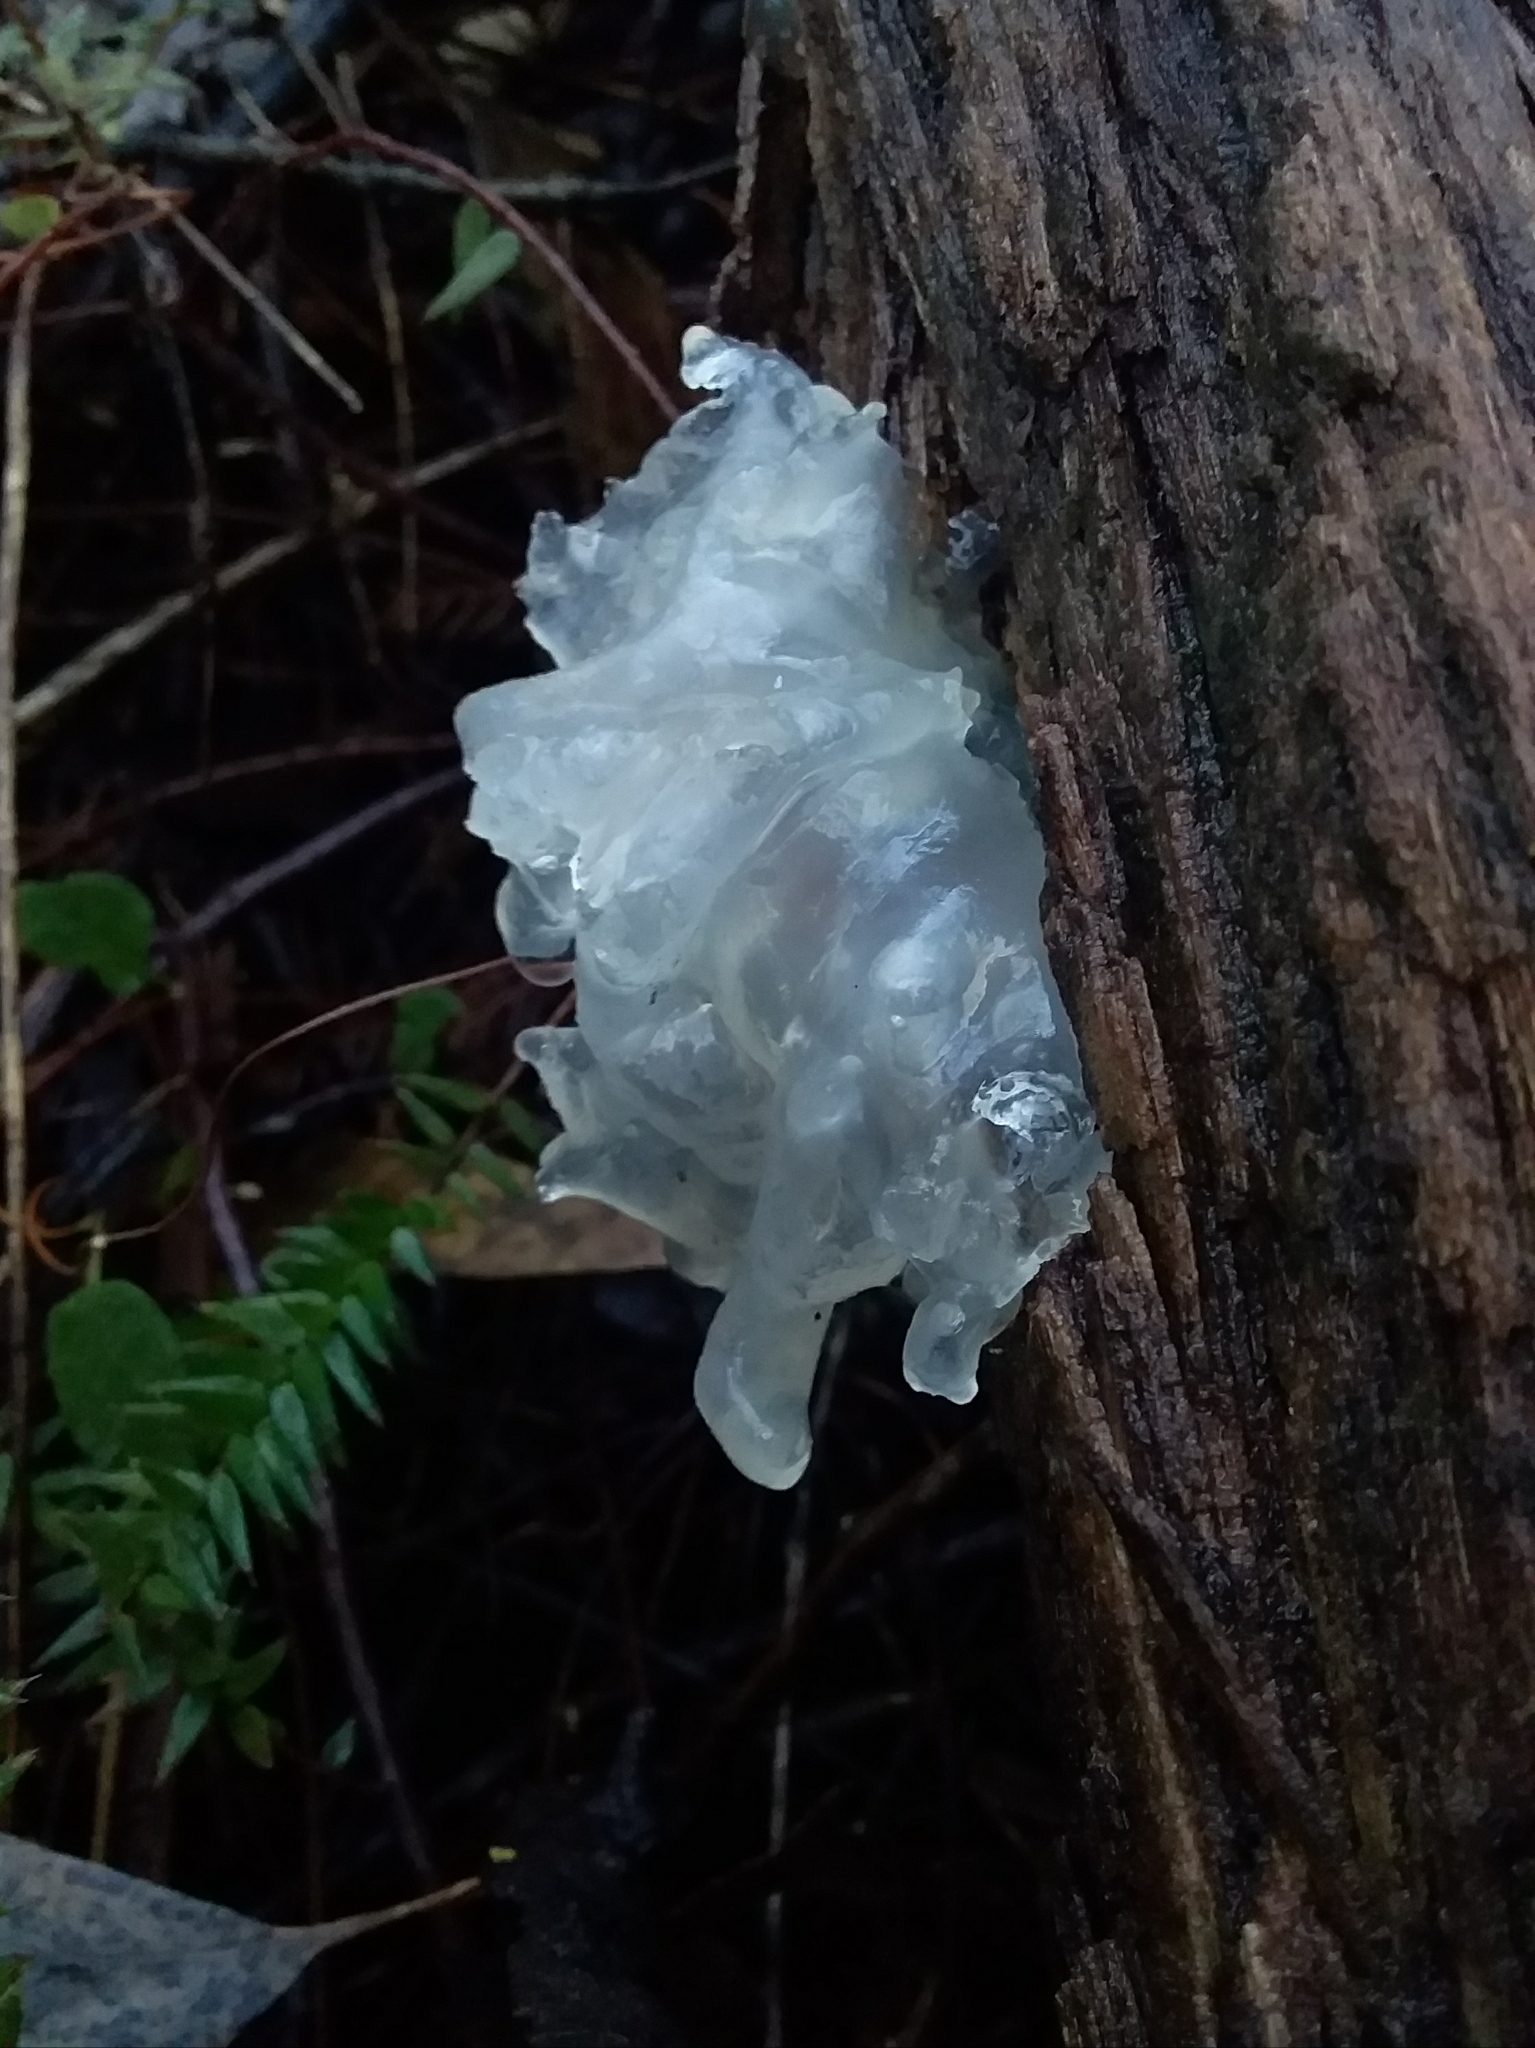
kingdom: Fungi
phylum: Basidiomycota
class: Tremellomycetes
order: Tremellales
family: Tremellaceae
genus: Tremella
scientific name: Tremella fuciformis
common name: Snow fungus
